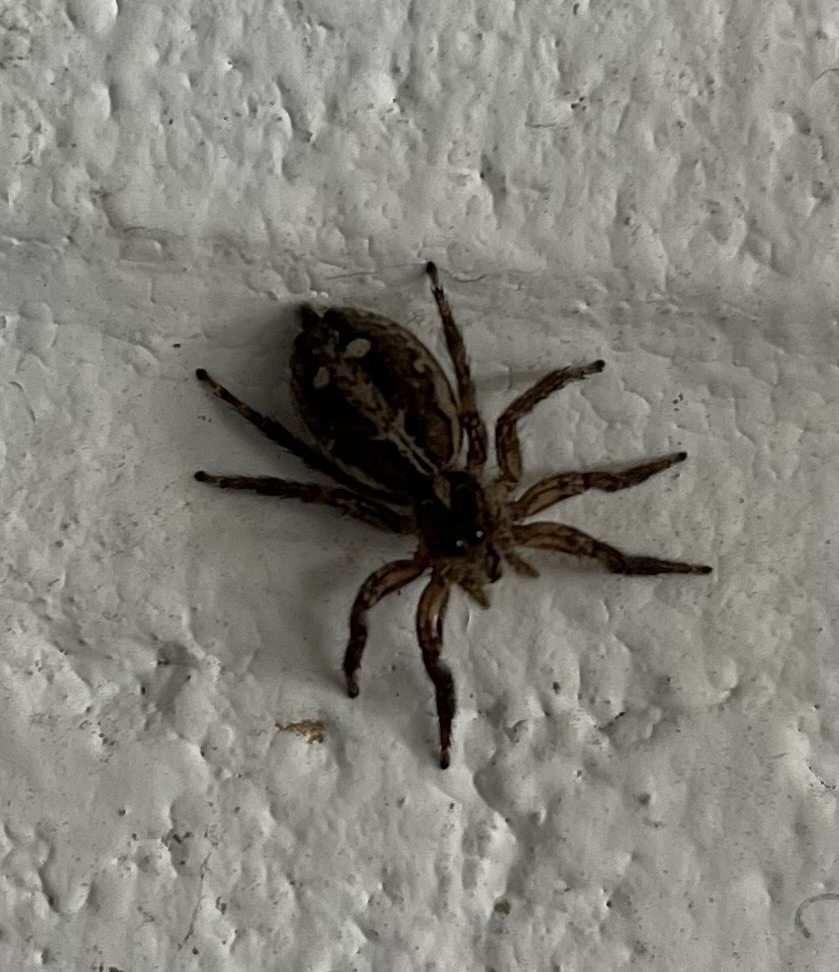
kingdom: Animalia
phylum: Arthropoda
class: Arachnida
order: Araneae
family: Salticidae
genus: Plexippus
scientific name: Plexippus paykulli
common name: Pantropical jumper
